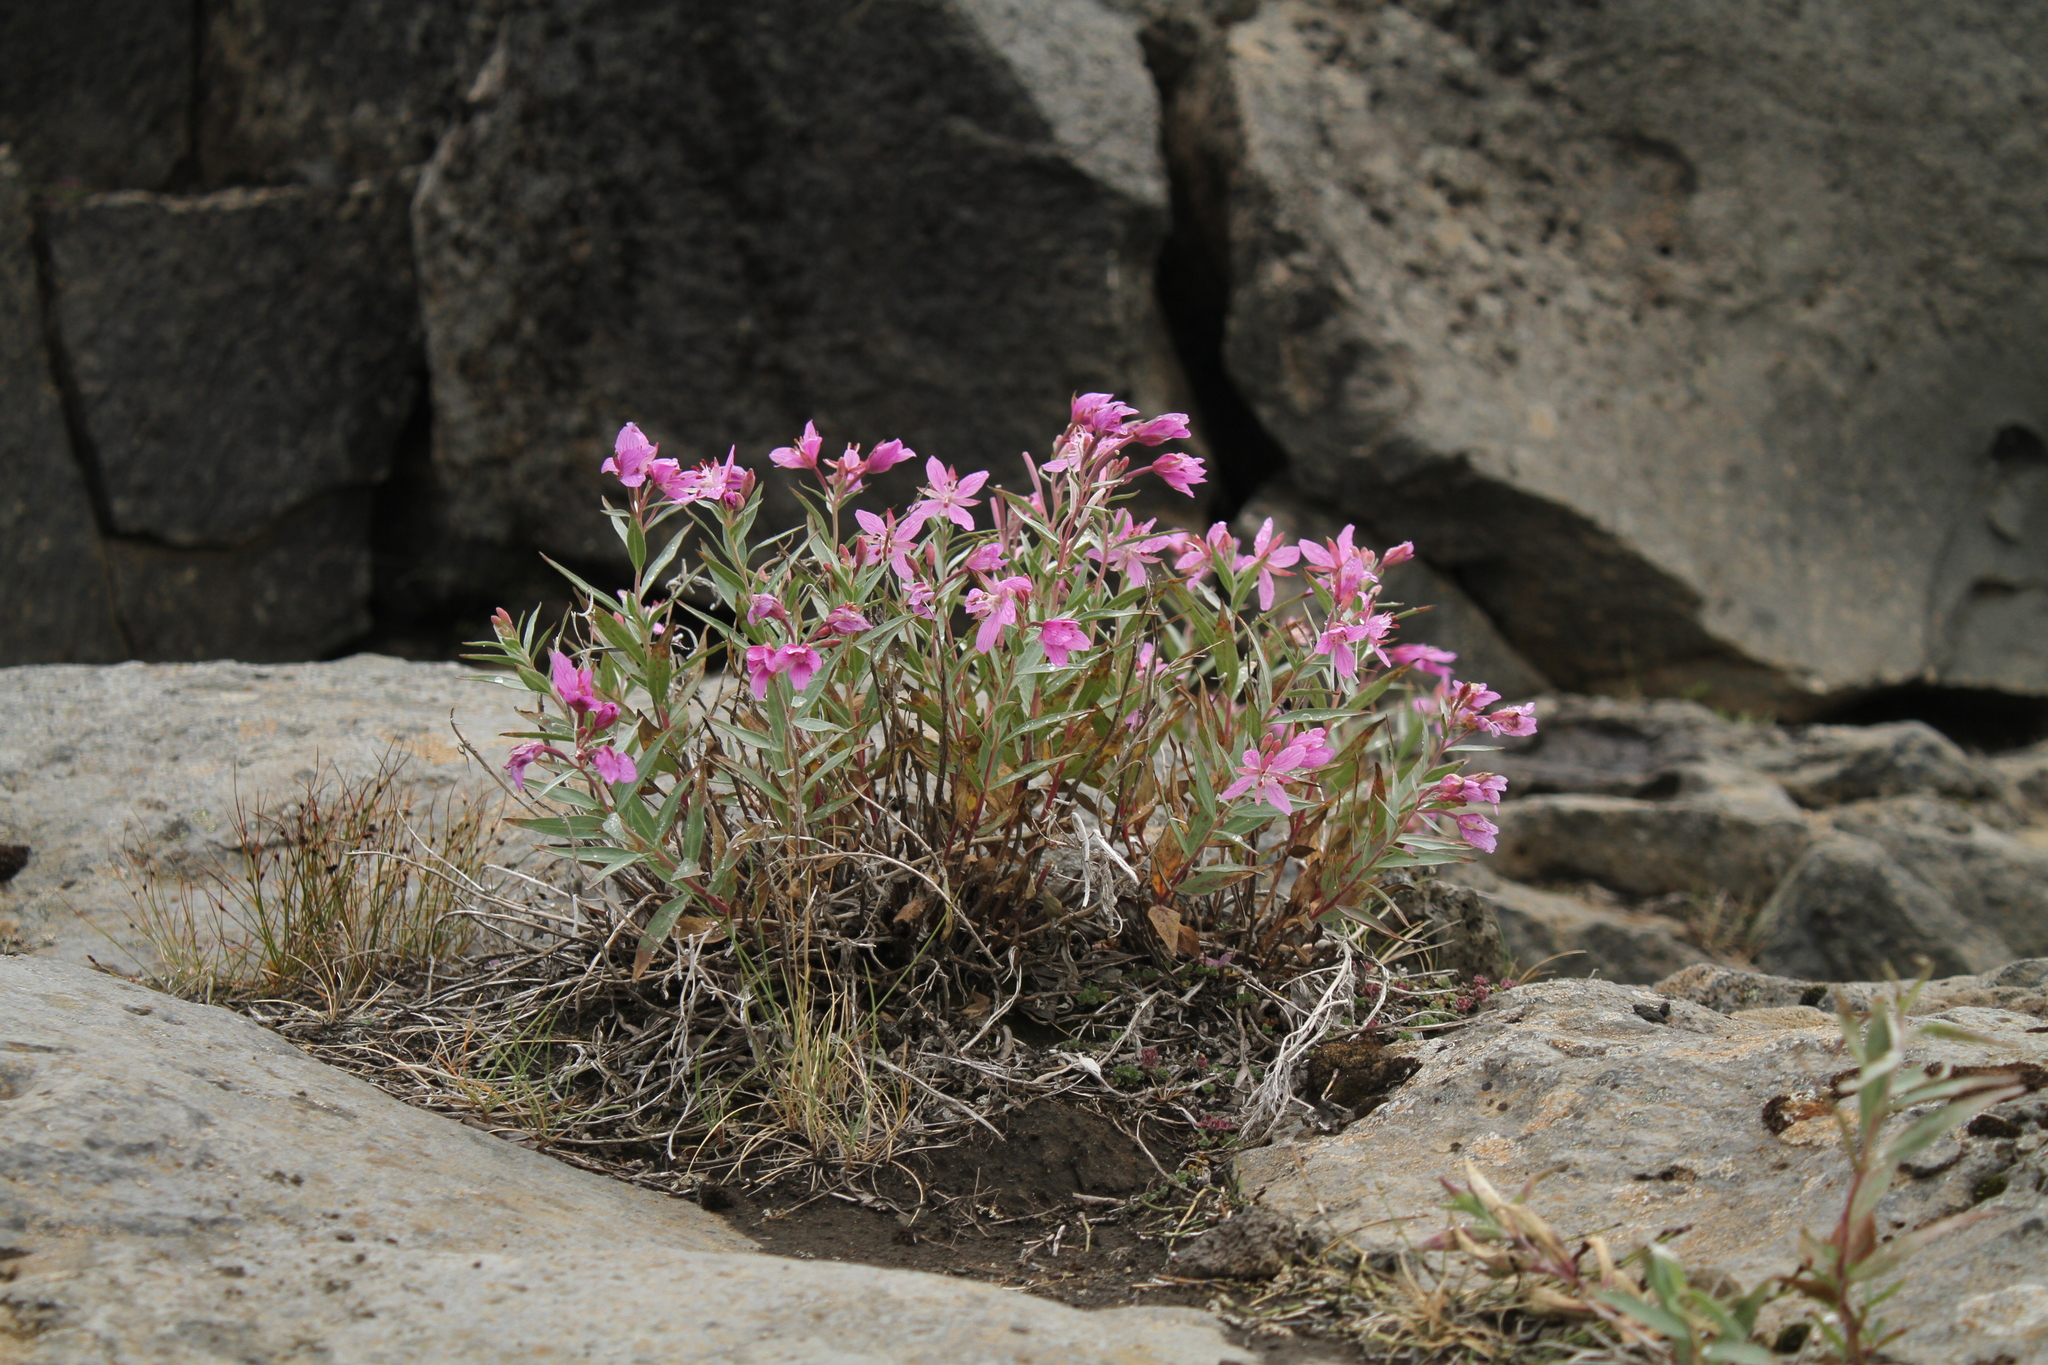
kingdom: Plantae
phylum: Tracheophyta
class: Magnoliopsida
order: Myrtales
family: Onagraceae
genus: Chamaenerion
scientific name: Chamaenerion latifolium
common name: Dwarf fireweed
